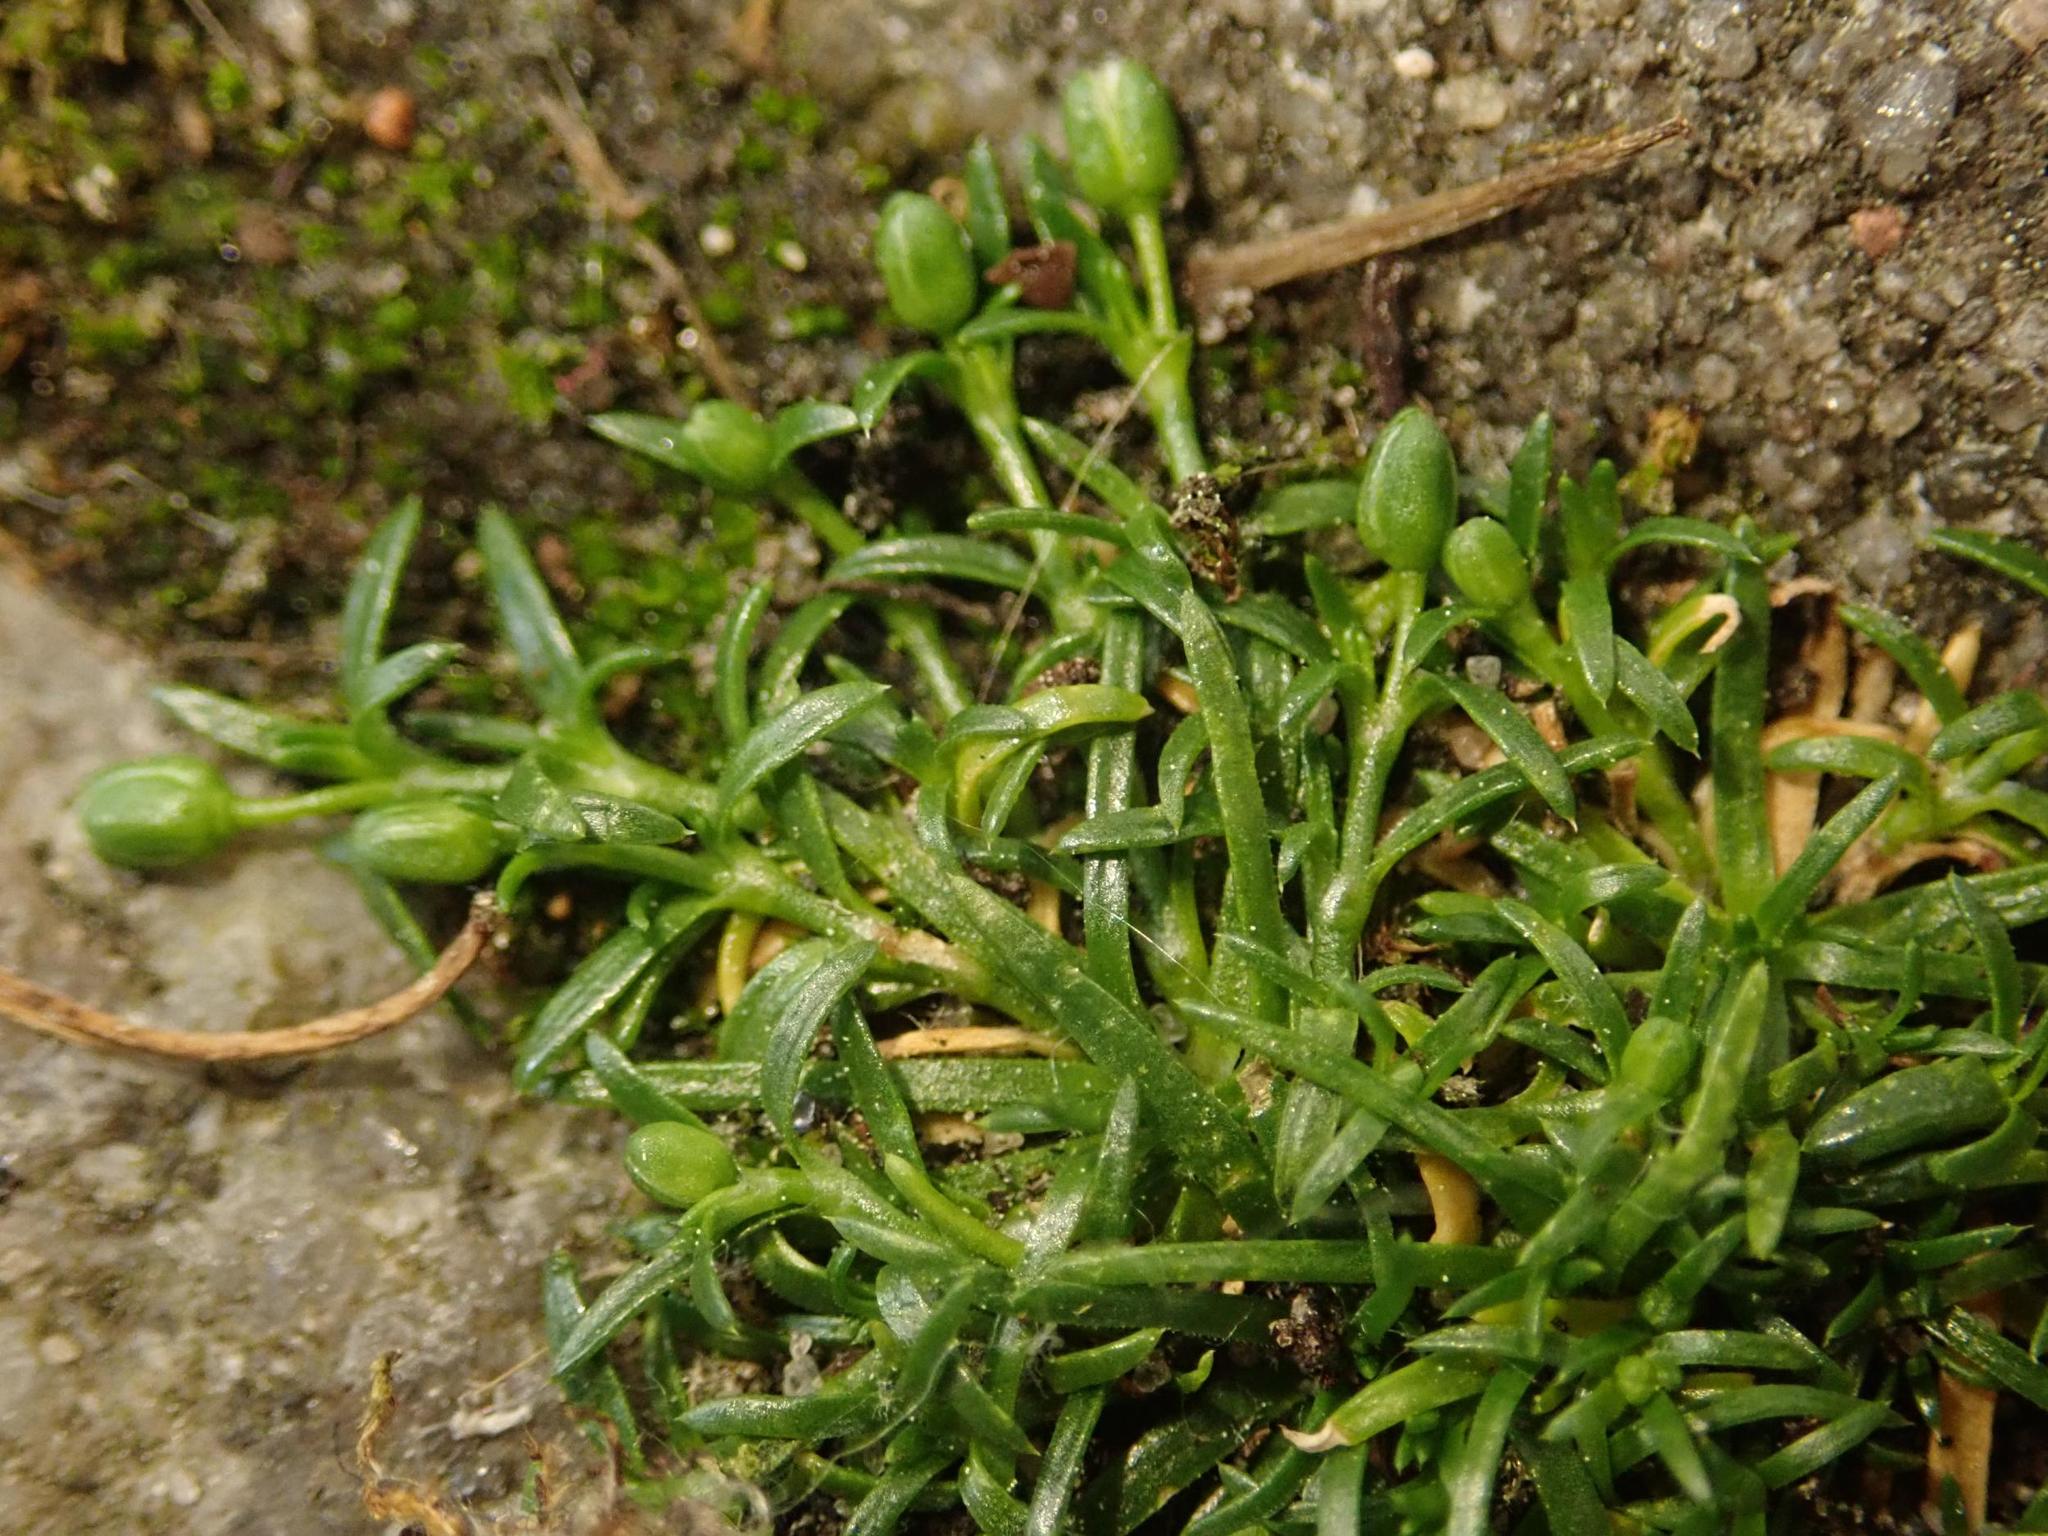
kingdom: Plantae
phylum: Tracheophyta
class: Magnoliopsida
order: Caryophyllales
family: Caryophyllaceae
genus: Sagina
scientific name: Sagina procumbens
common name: Procumbent pearlwort
